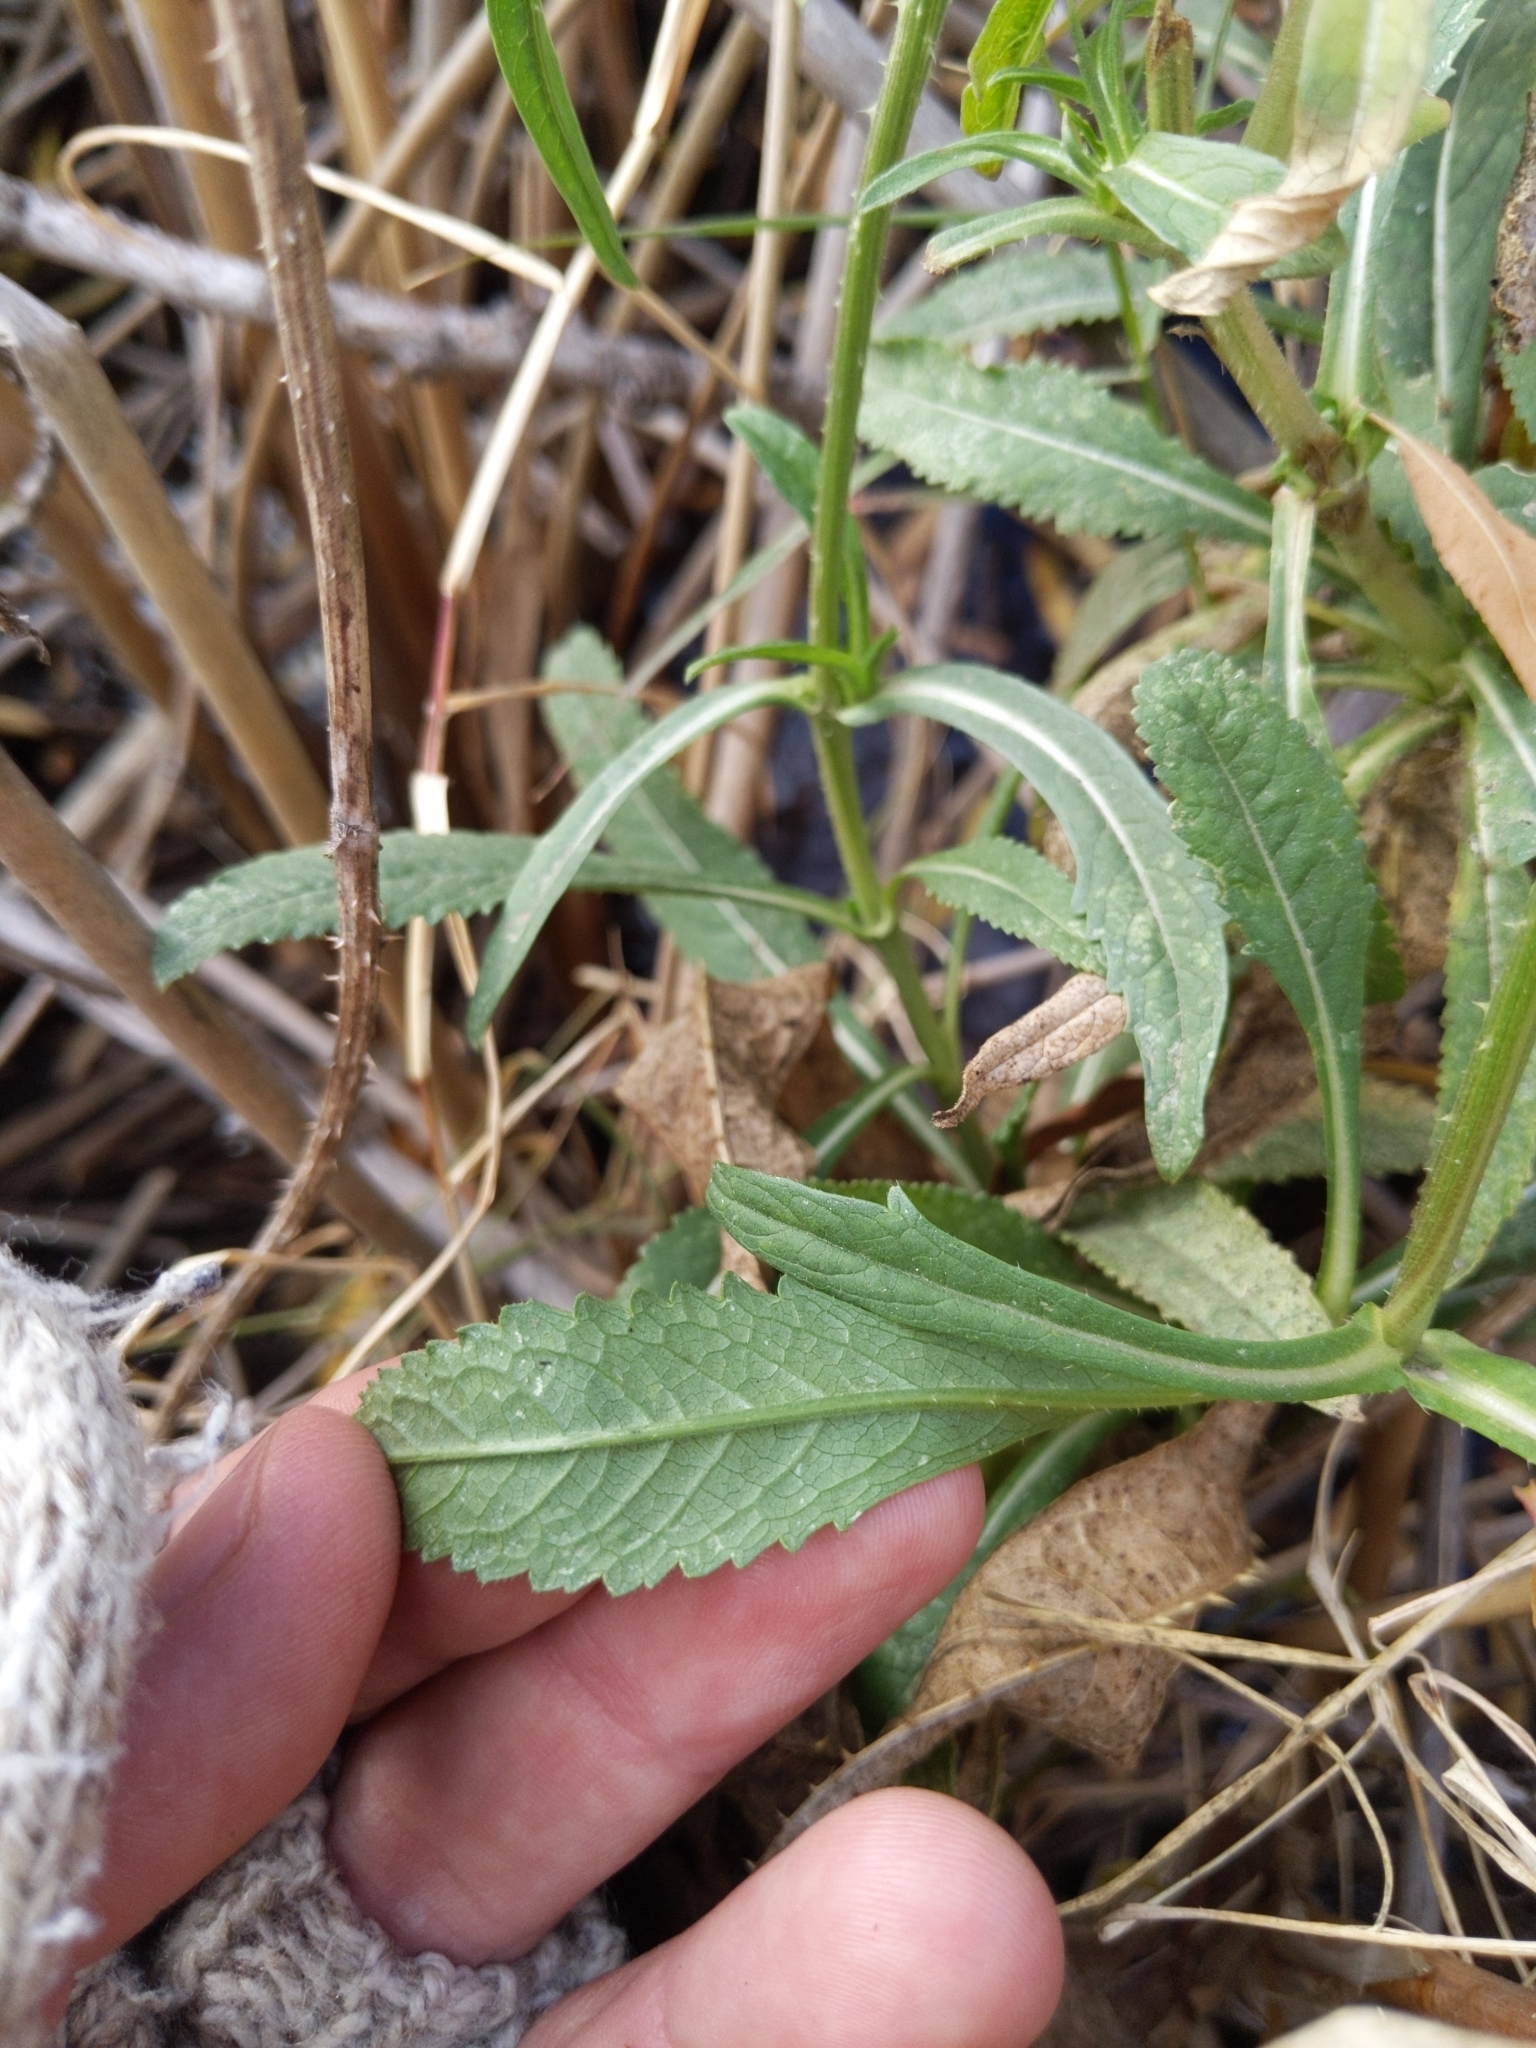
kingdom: Plantae
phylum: Tracheophyta
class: Magnoliopsida
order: Dipsacales
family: Caprifoliaceae
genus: Dipsacus
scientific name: Dipsacus fullonum
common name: Teasel
